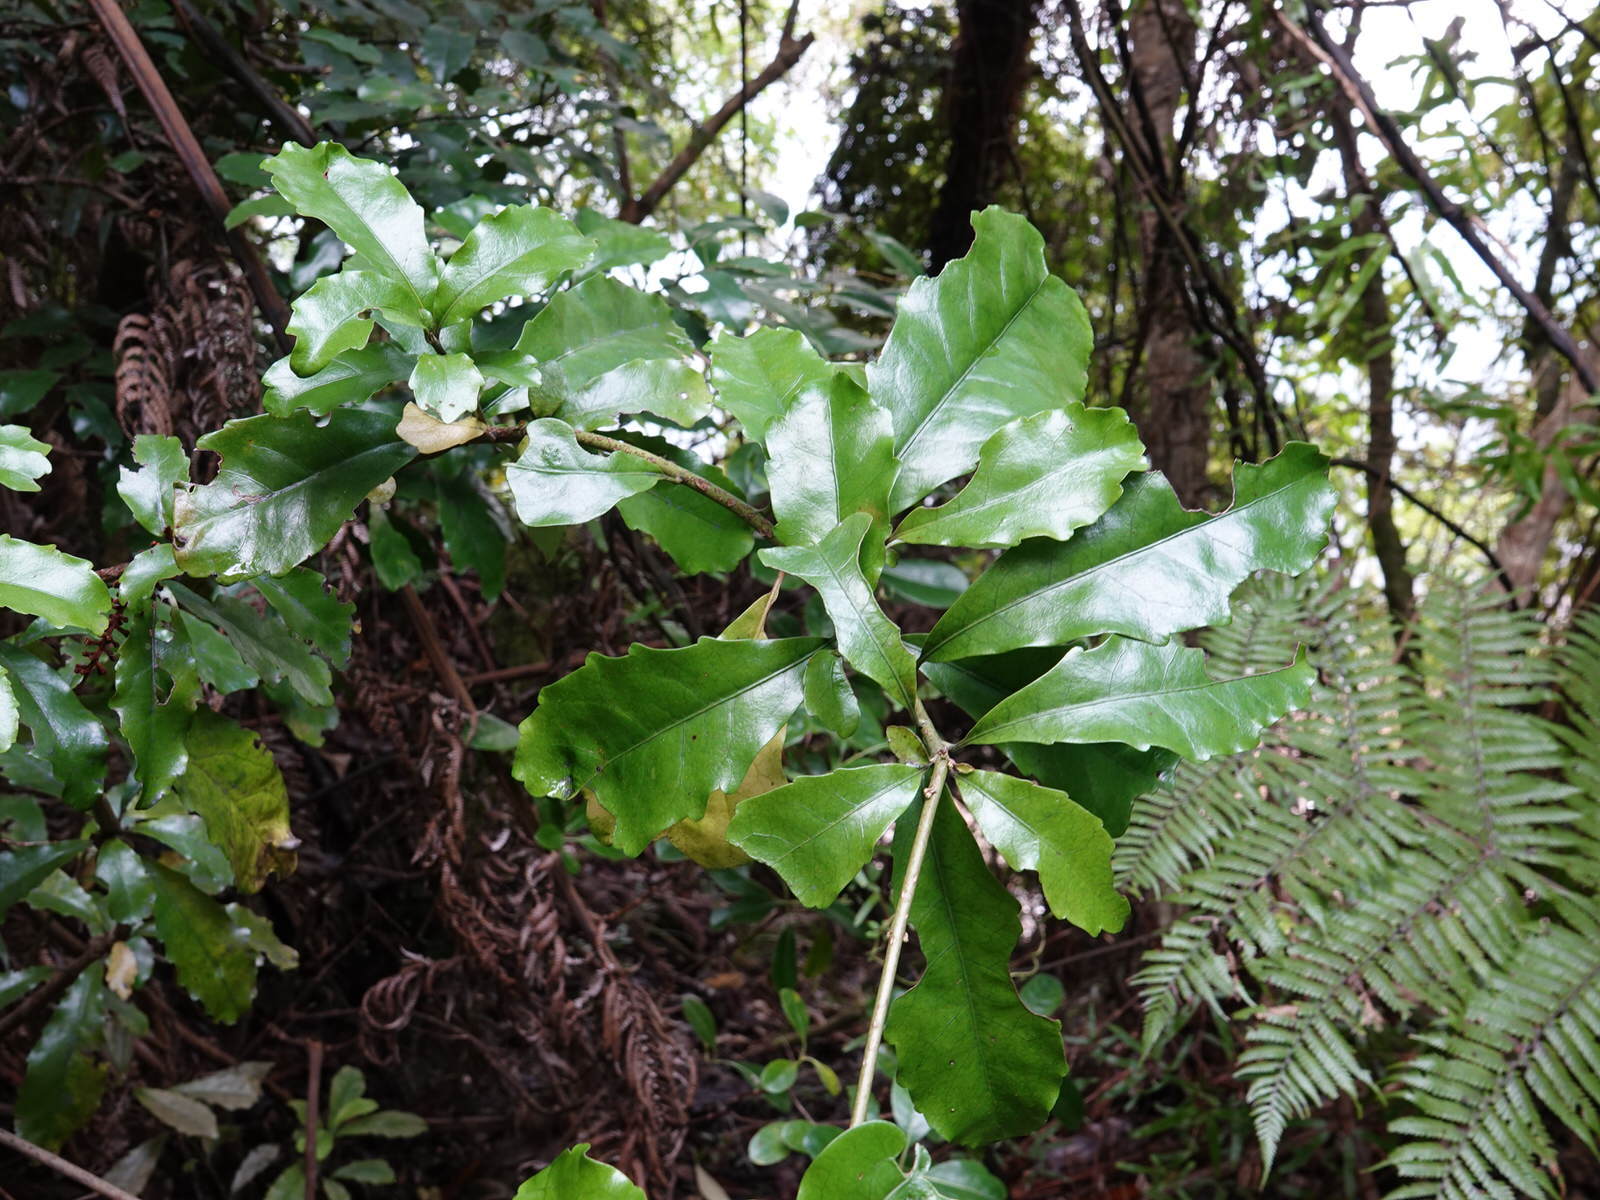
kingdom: Plantae
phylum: Tracheophyta
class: Magnoliopsida
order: Asterales
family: Alseuosmiaceae
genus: Alseuosmia
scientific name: Alseuosmia macrophylla
